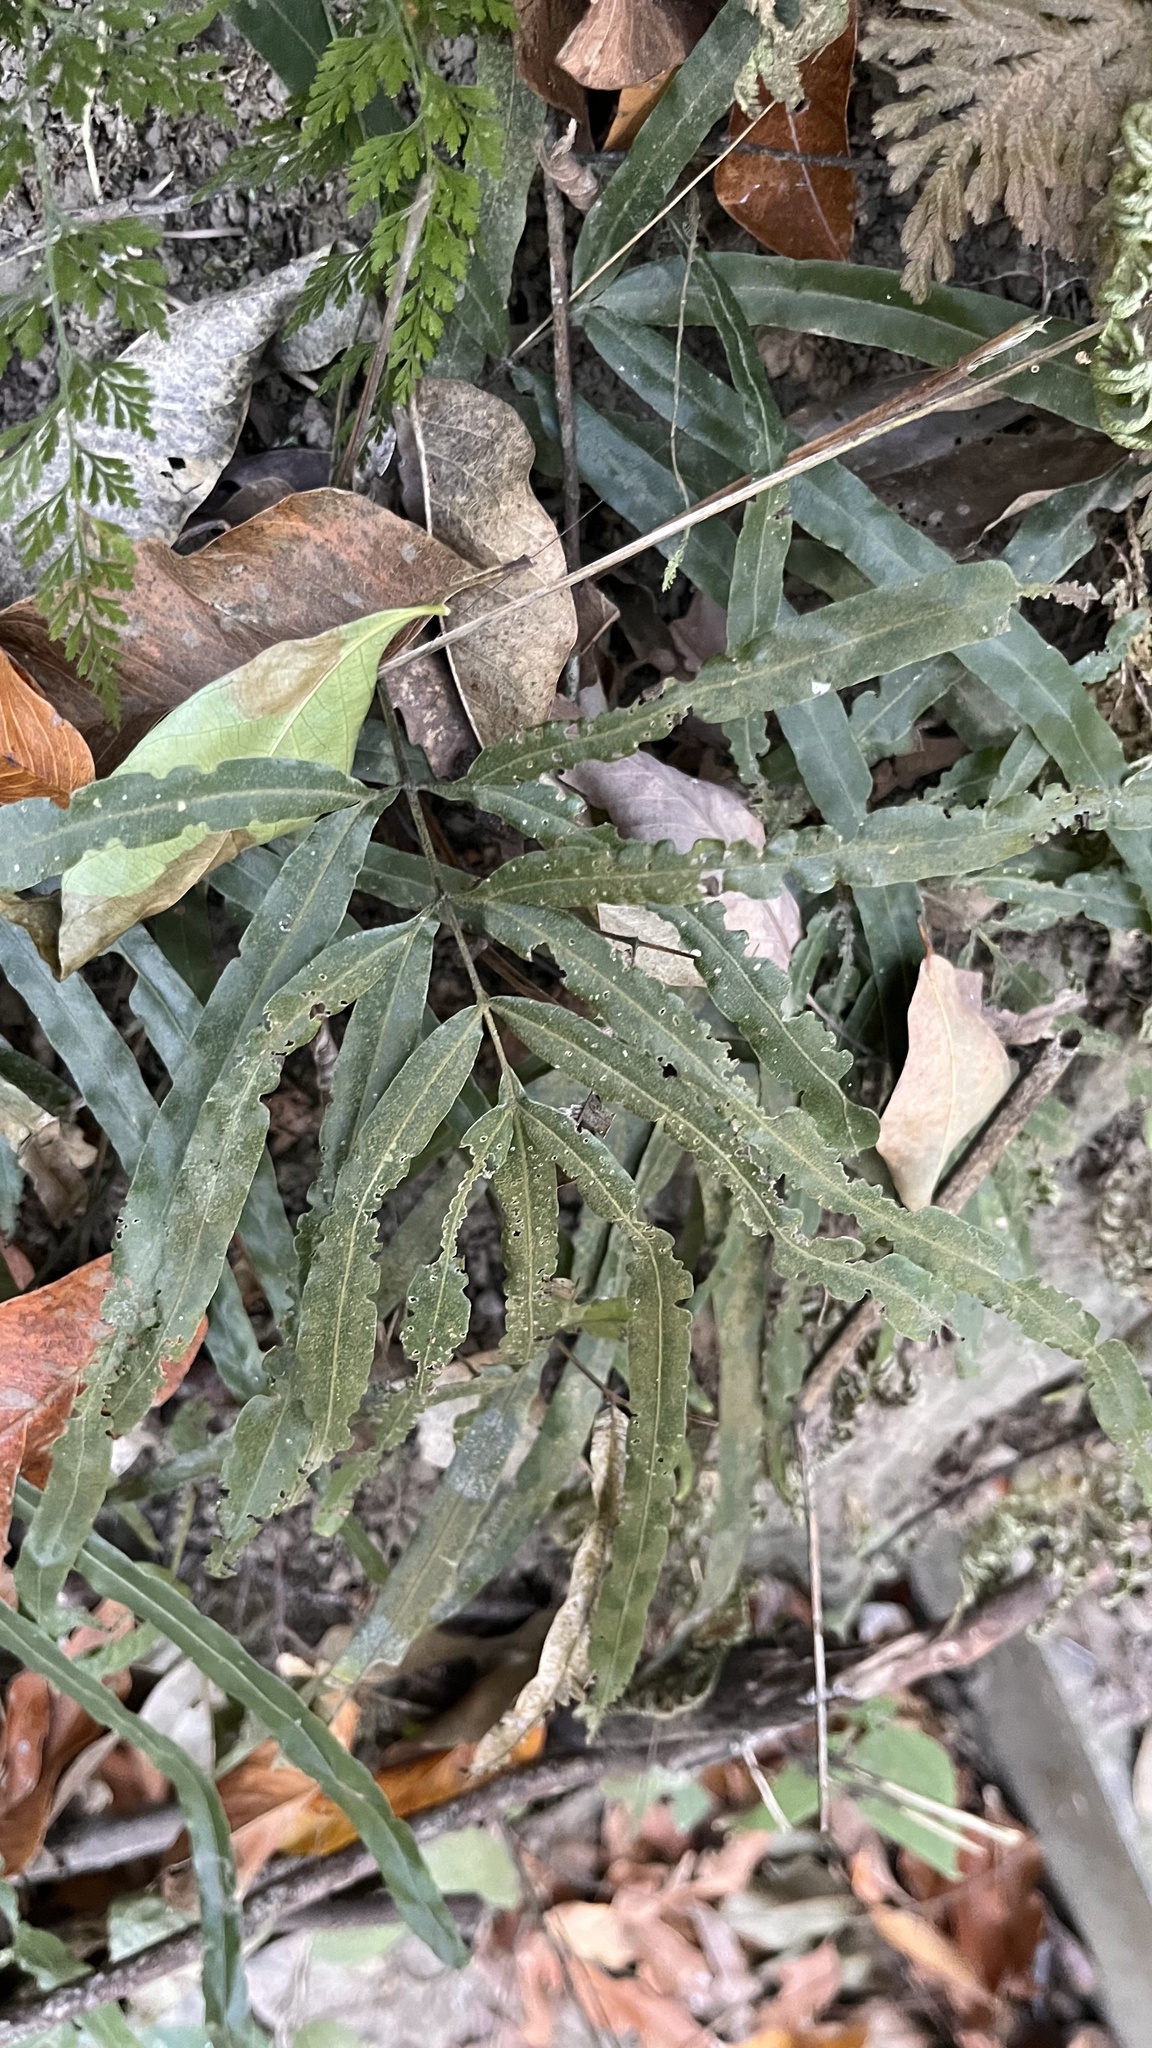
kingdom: Plantae
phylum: Tracheophyta
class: Polypodiopsida
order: Schizaeales
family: Lygodiaceae
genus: Lygodium
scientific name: Lygodium japonicum
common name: Japanese climbing fern
